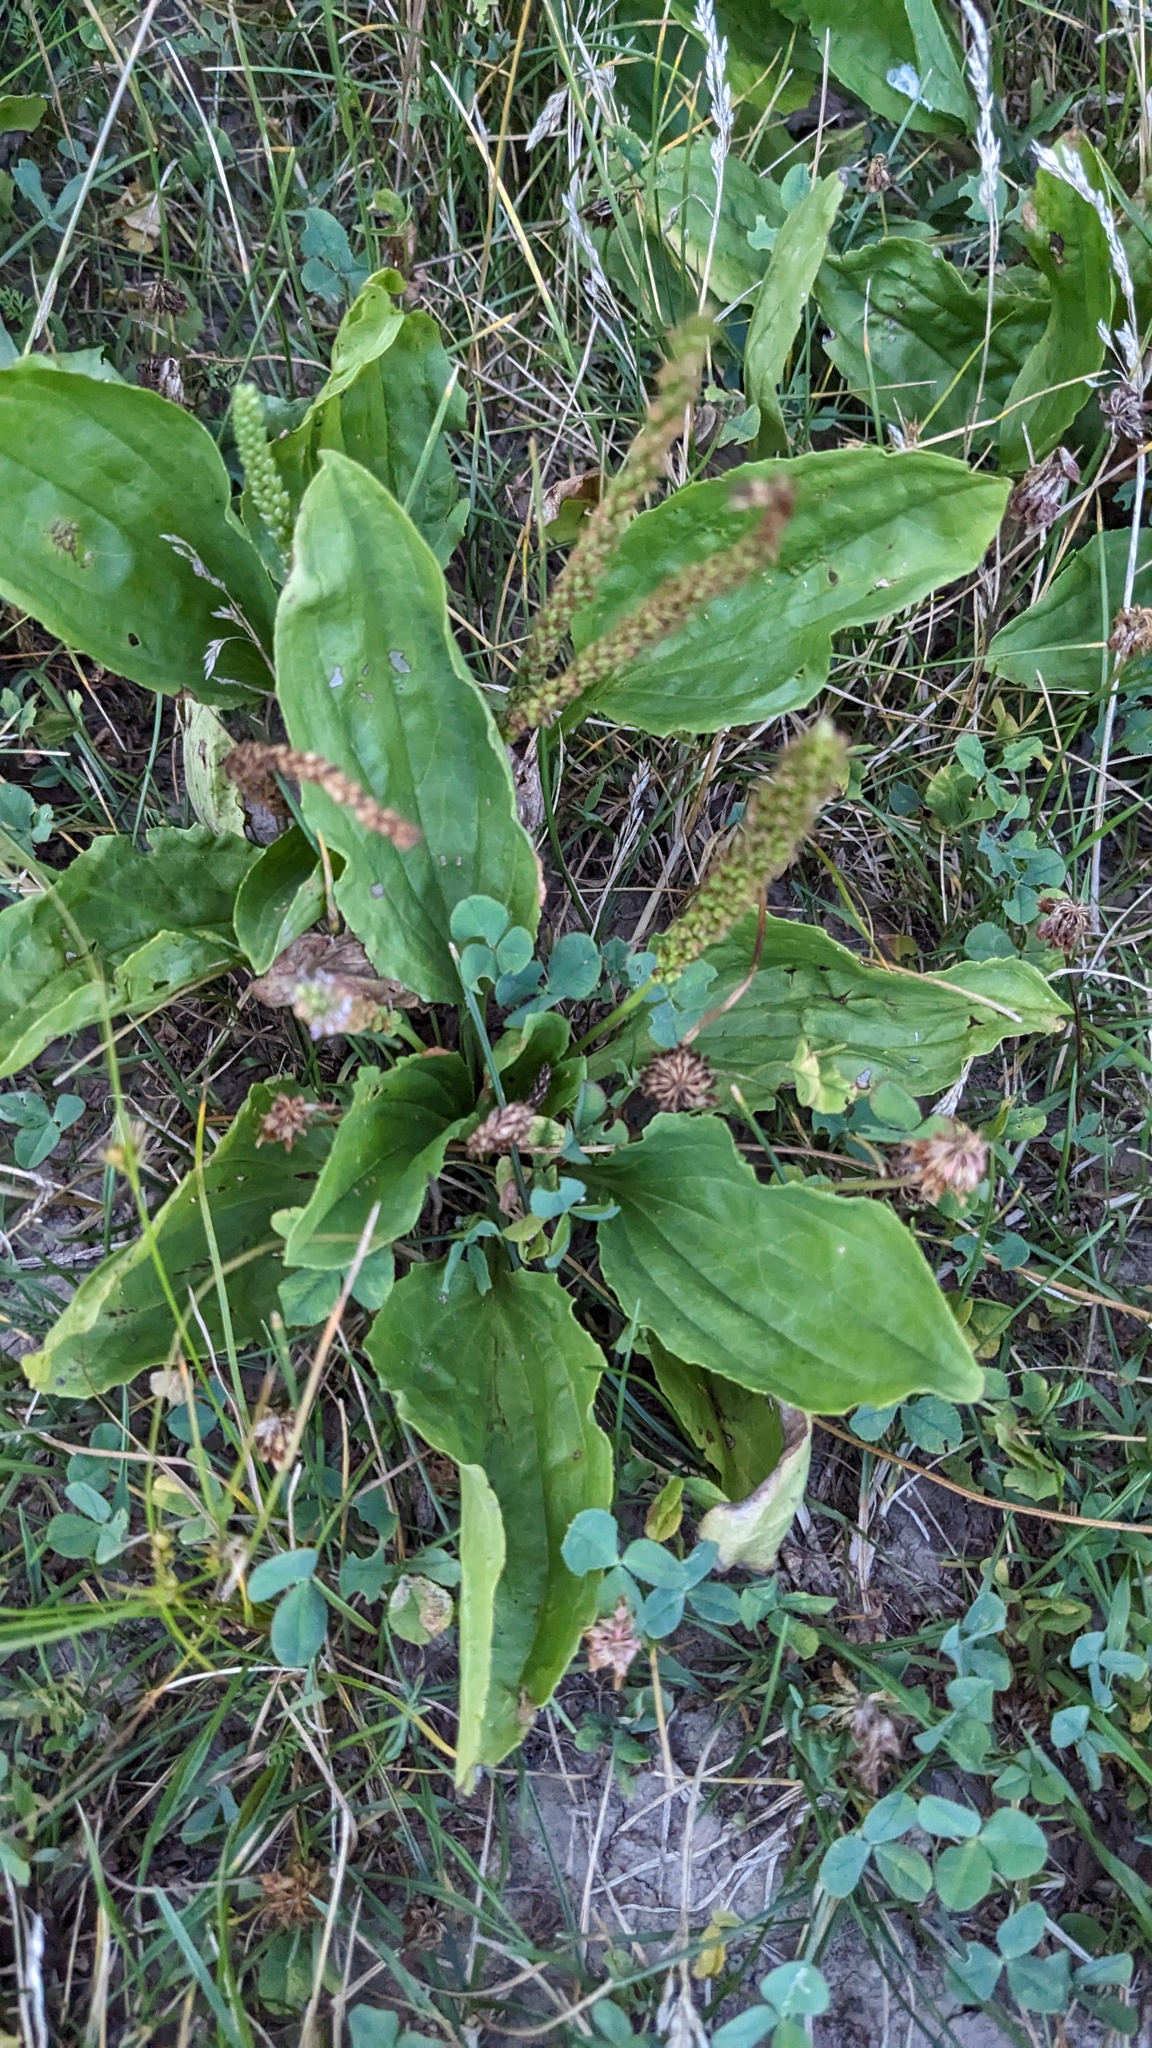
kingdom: Plantae
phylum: Tracheophyta
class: Magnoliopsida
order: Lamiales
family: Plantaginaceae
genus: Plantago
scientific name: Plantago rugelii
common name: American plantain
